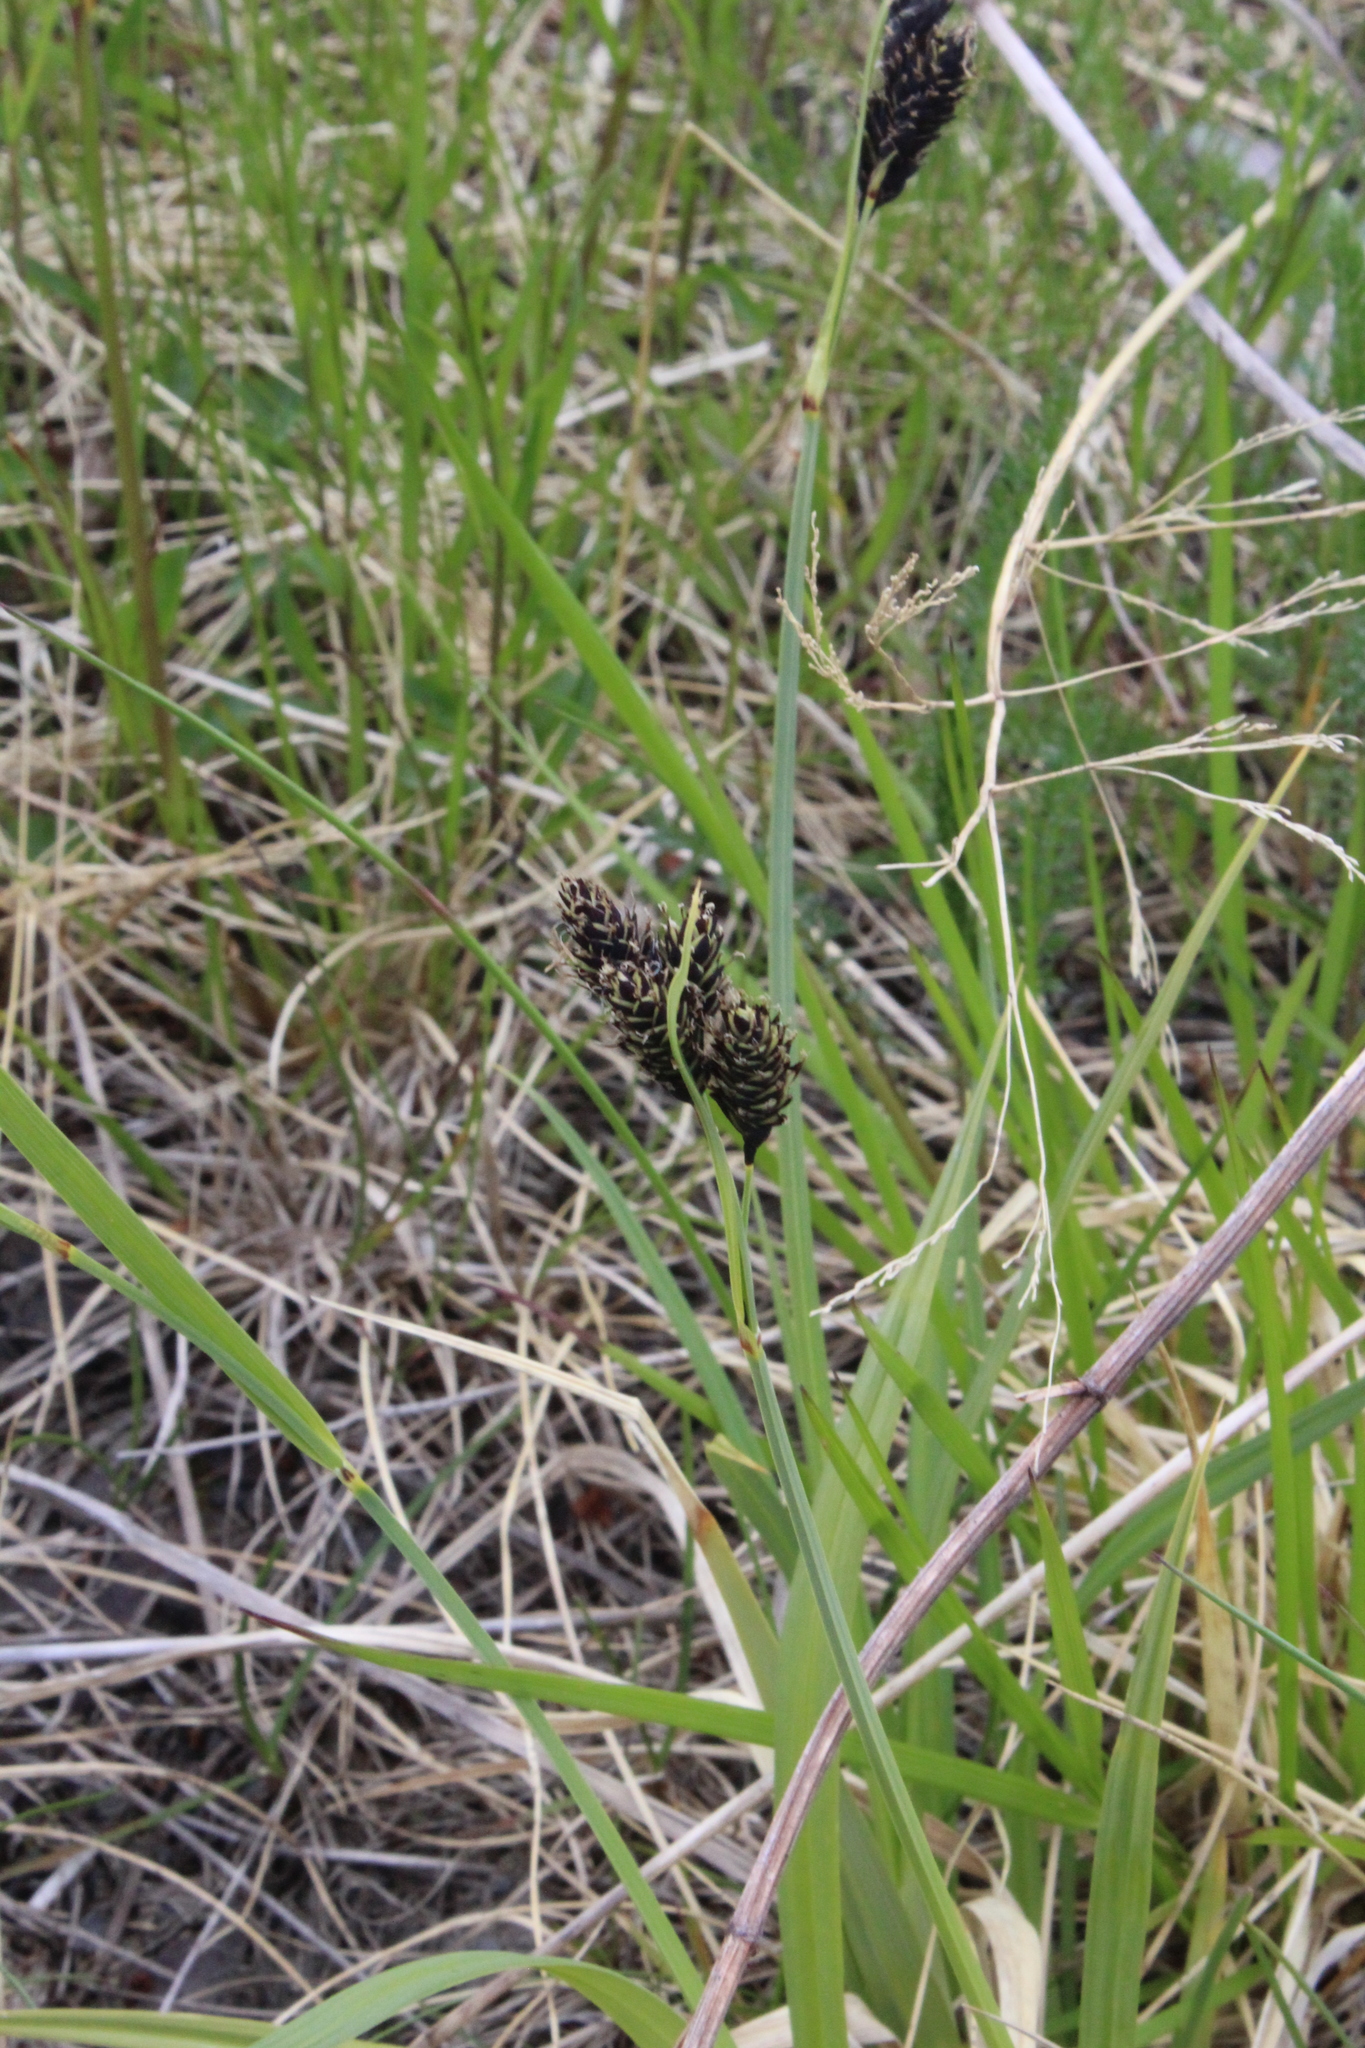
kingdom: Plantae
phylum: Tracheophyta
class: Liliopsida
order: Poales
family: Cyperaceae
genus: Carex
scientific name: Carex atrata
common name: Black alpine sedge
